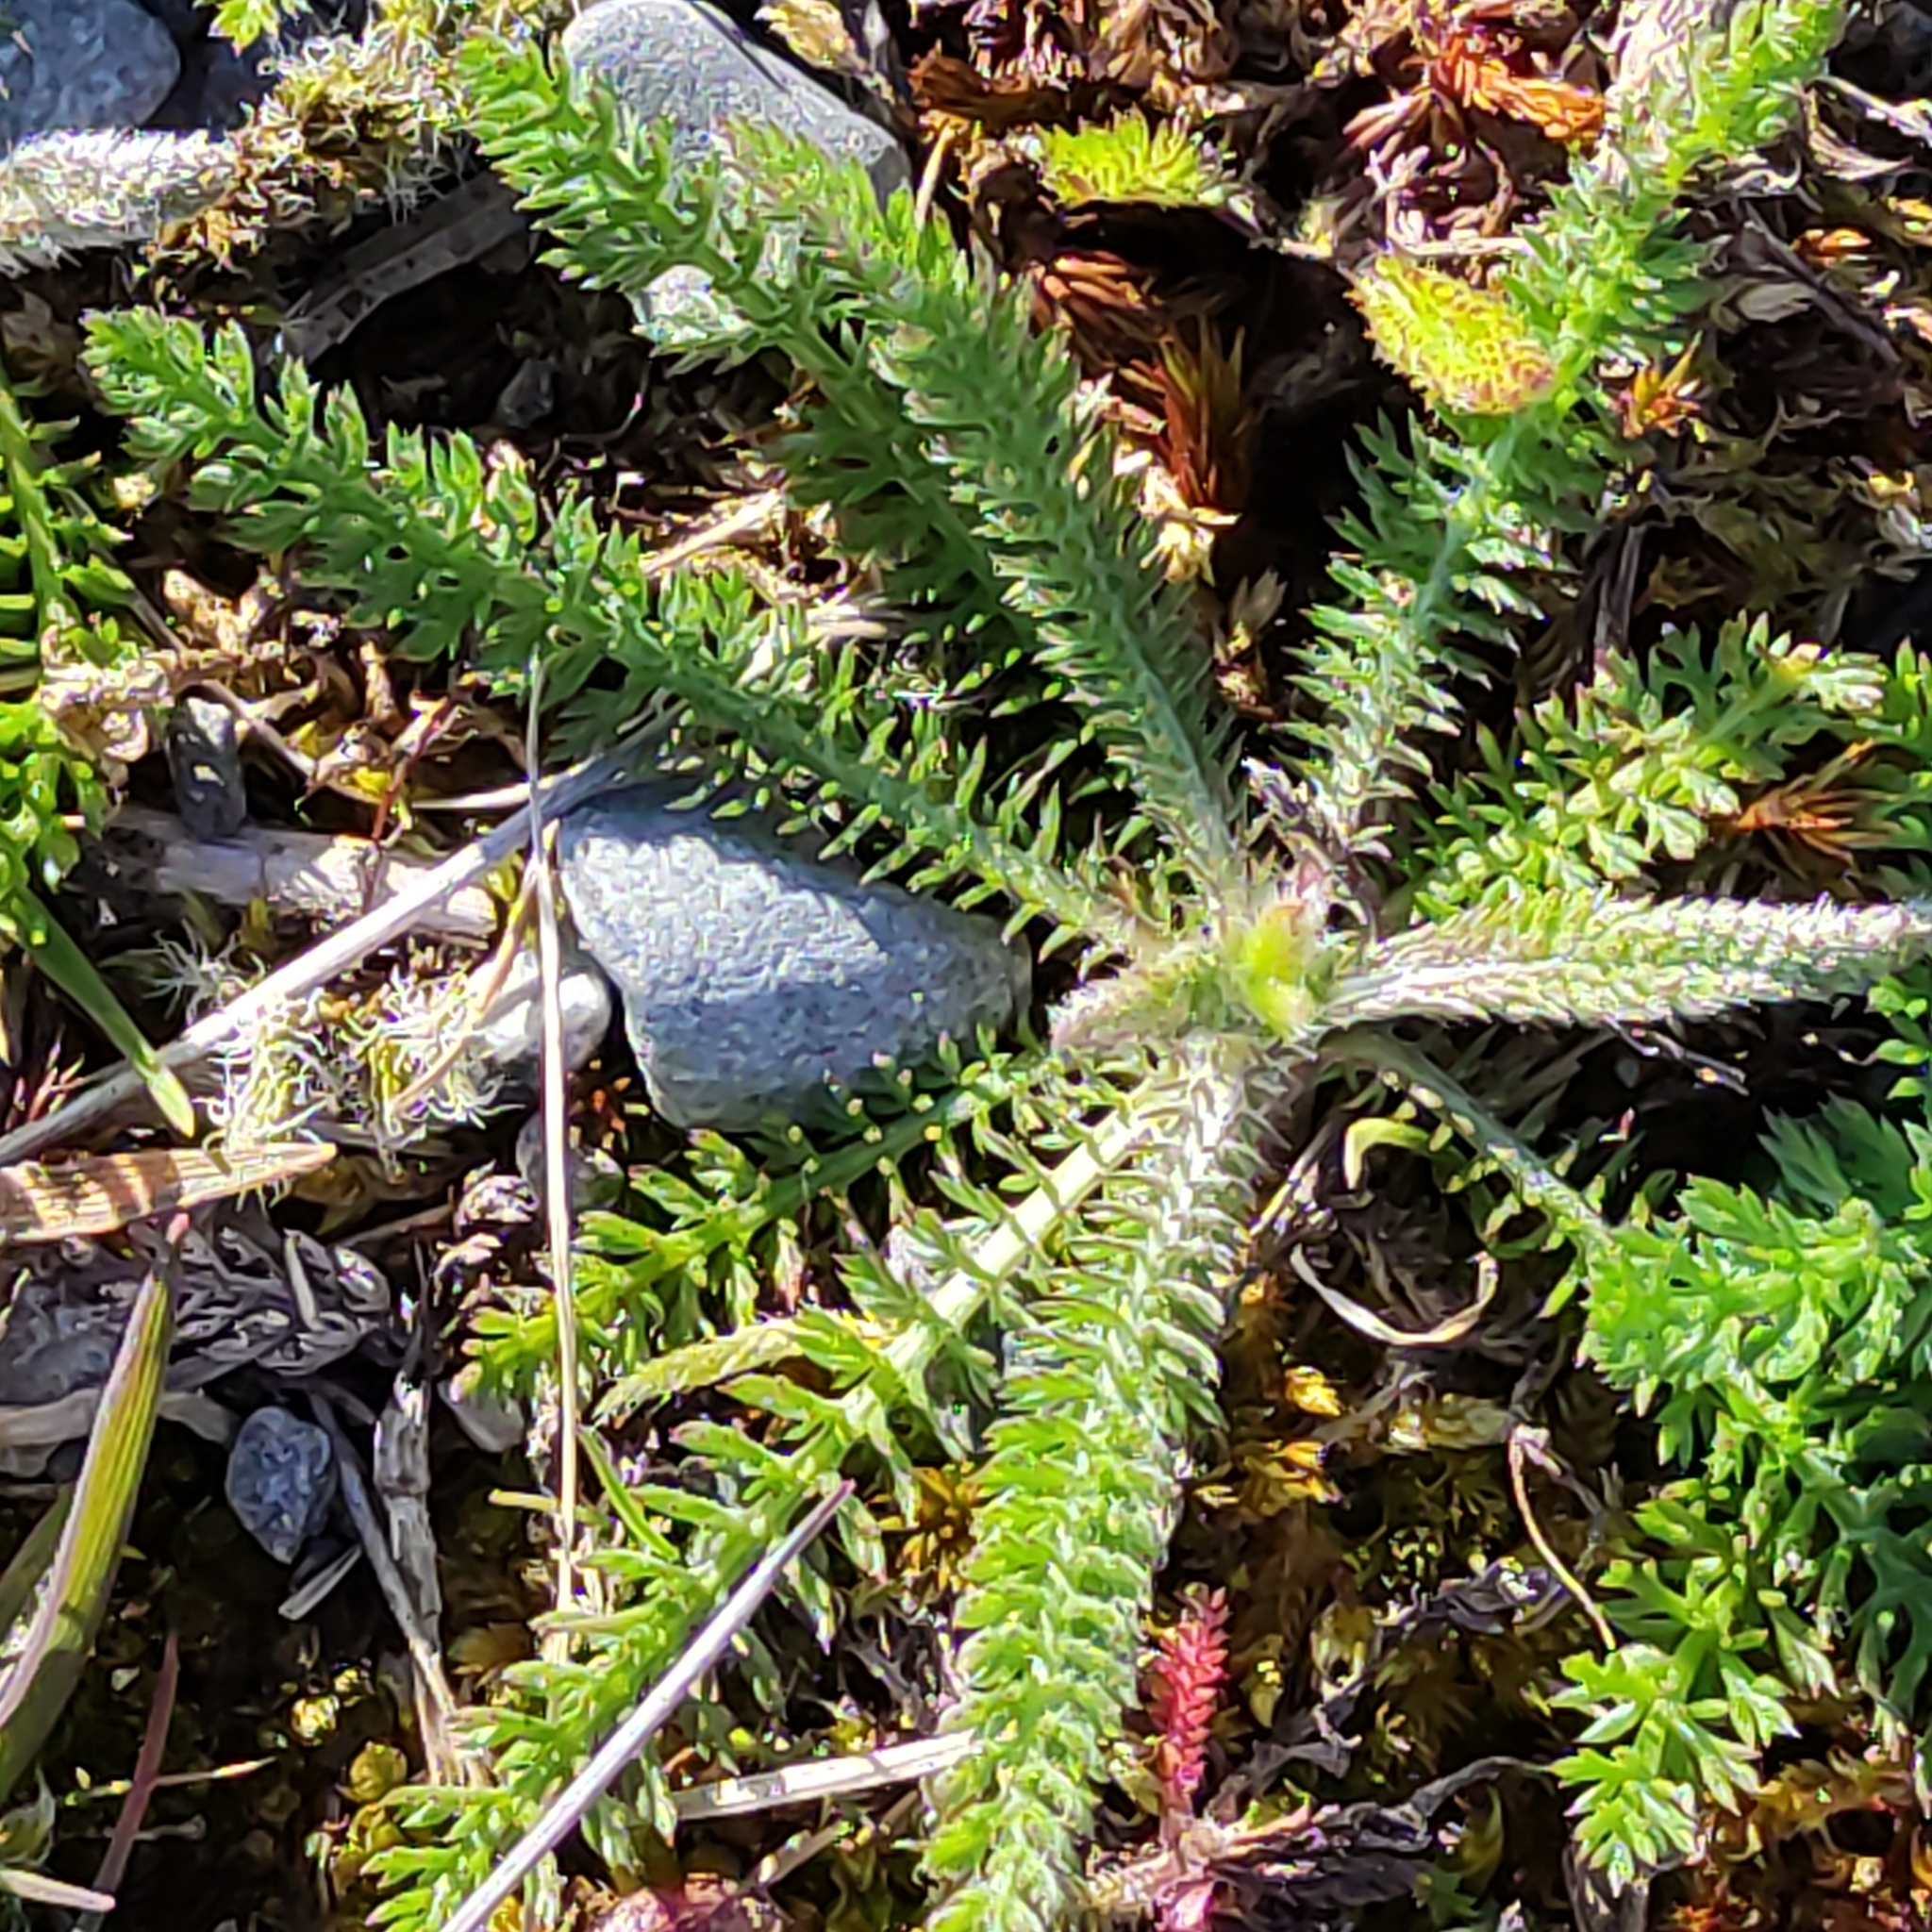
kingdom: Plantae
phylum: Tracheophyta
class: Magnoliopsida
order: Asterales
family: Asteraceae
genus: Achillea
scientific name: Achillea millefolium
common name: Yarrow
